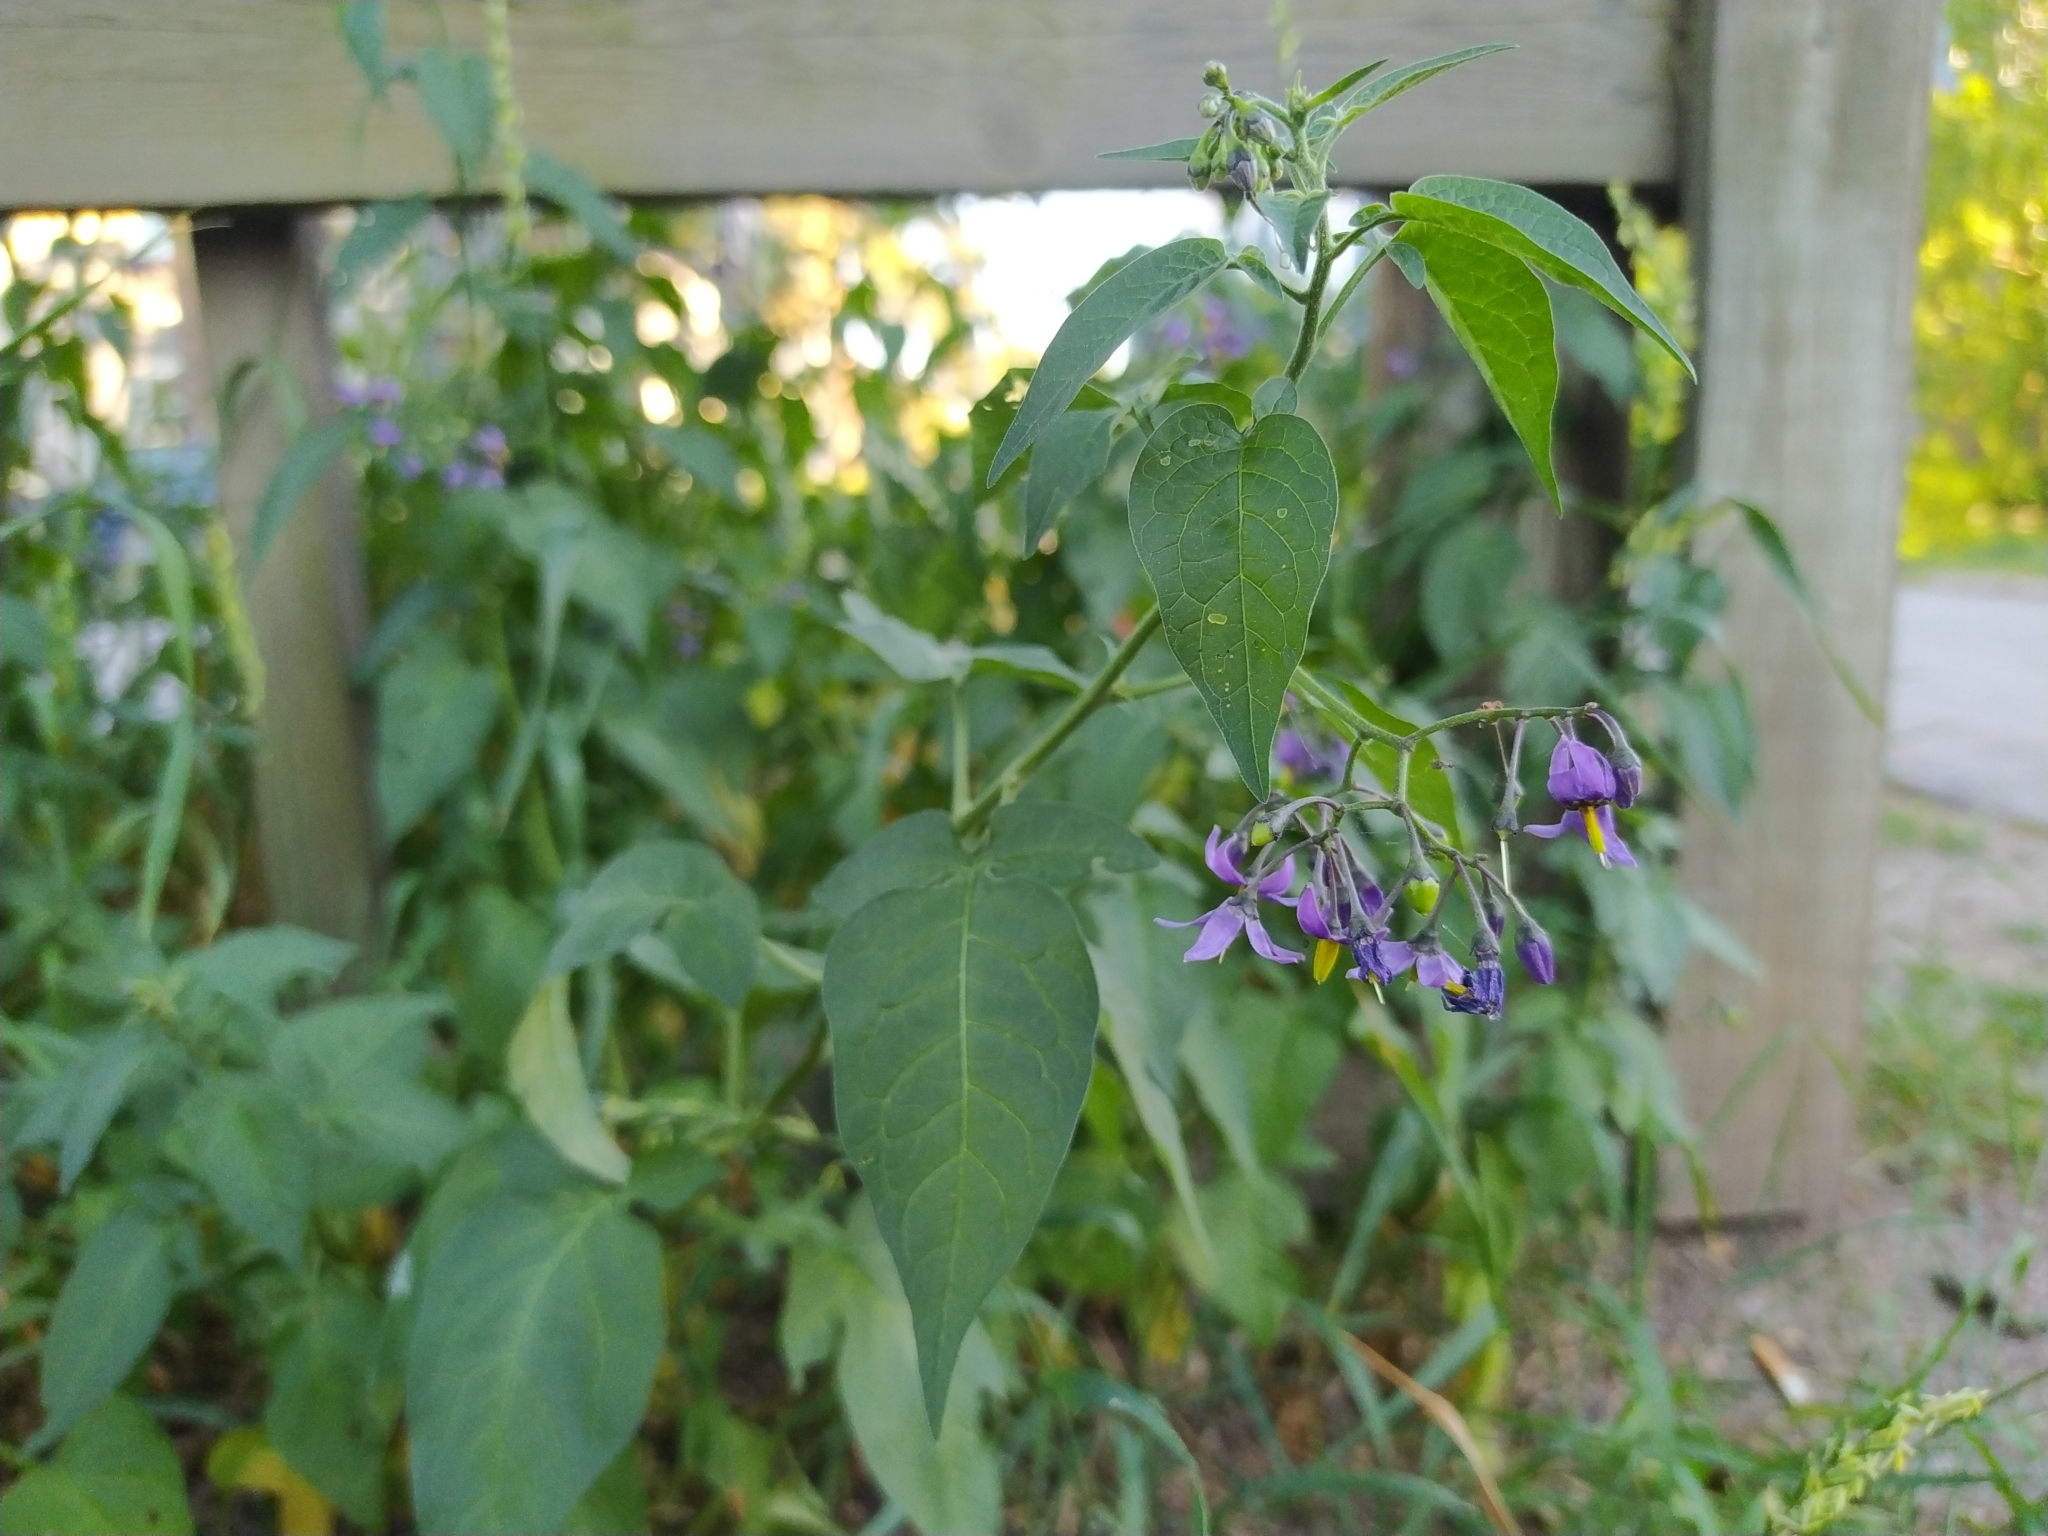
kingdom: Plantae
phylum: Tracheophyta
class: Magnoliopsida
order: Solanales
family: Solanaceae
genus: Solanum
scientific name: Solanum dulcamara
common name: Climbing nightshade
